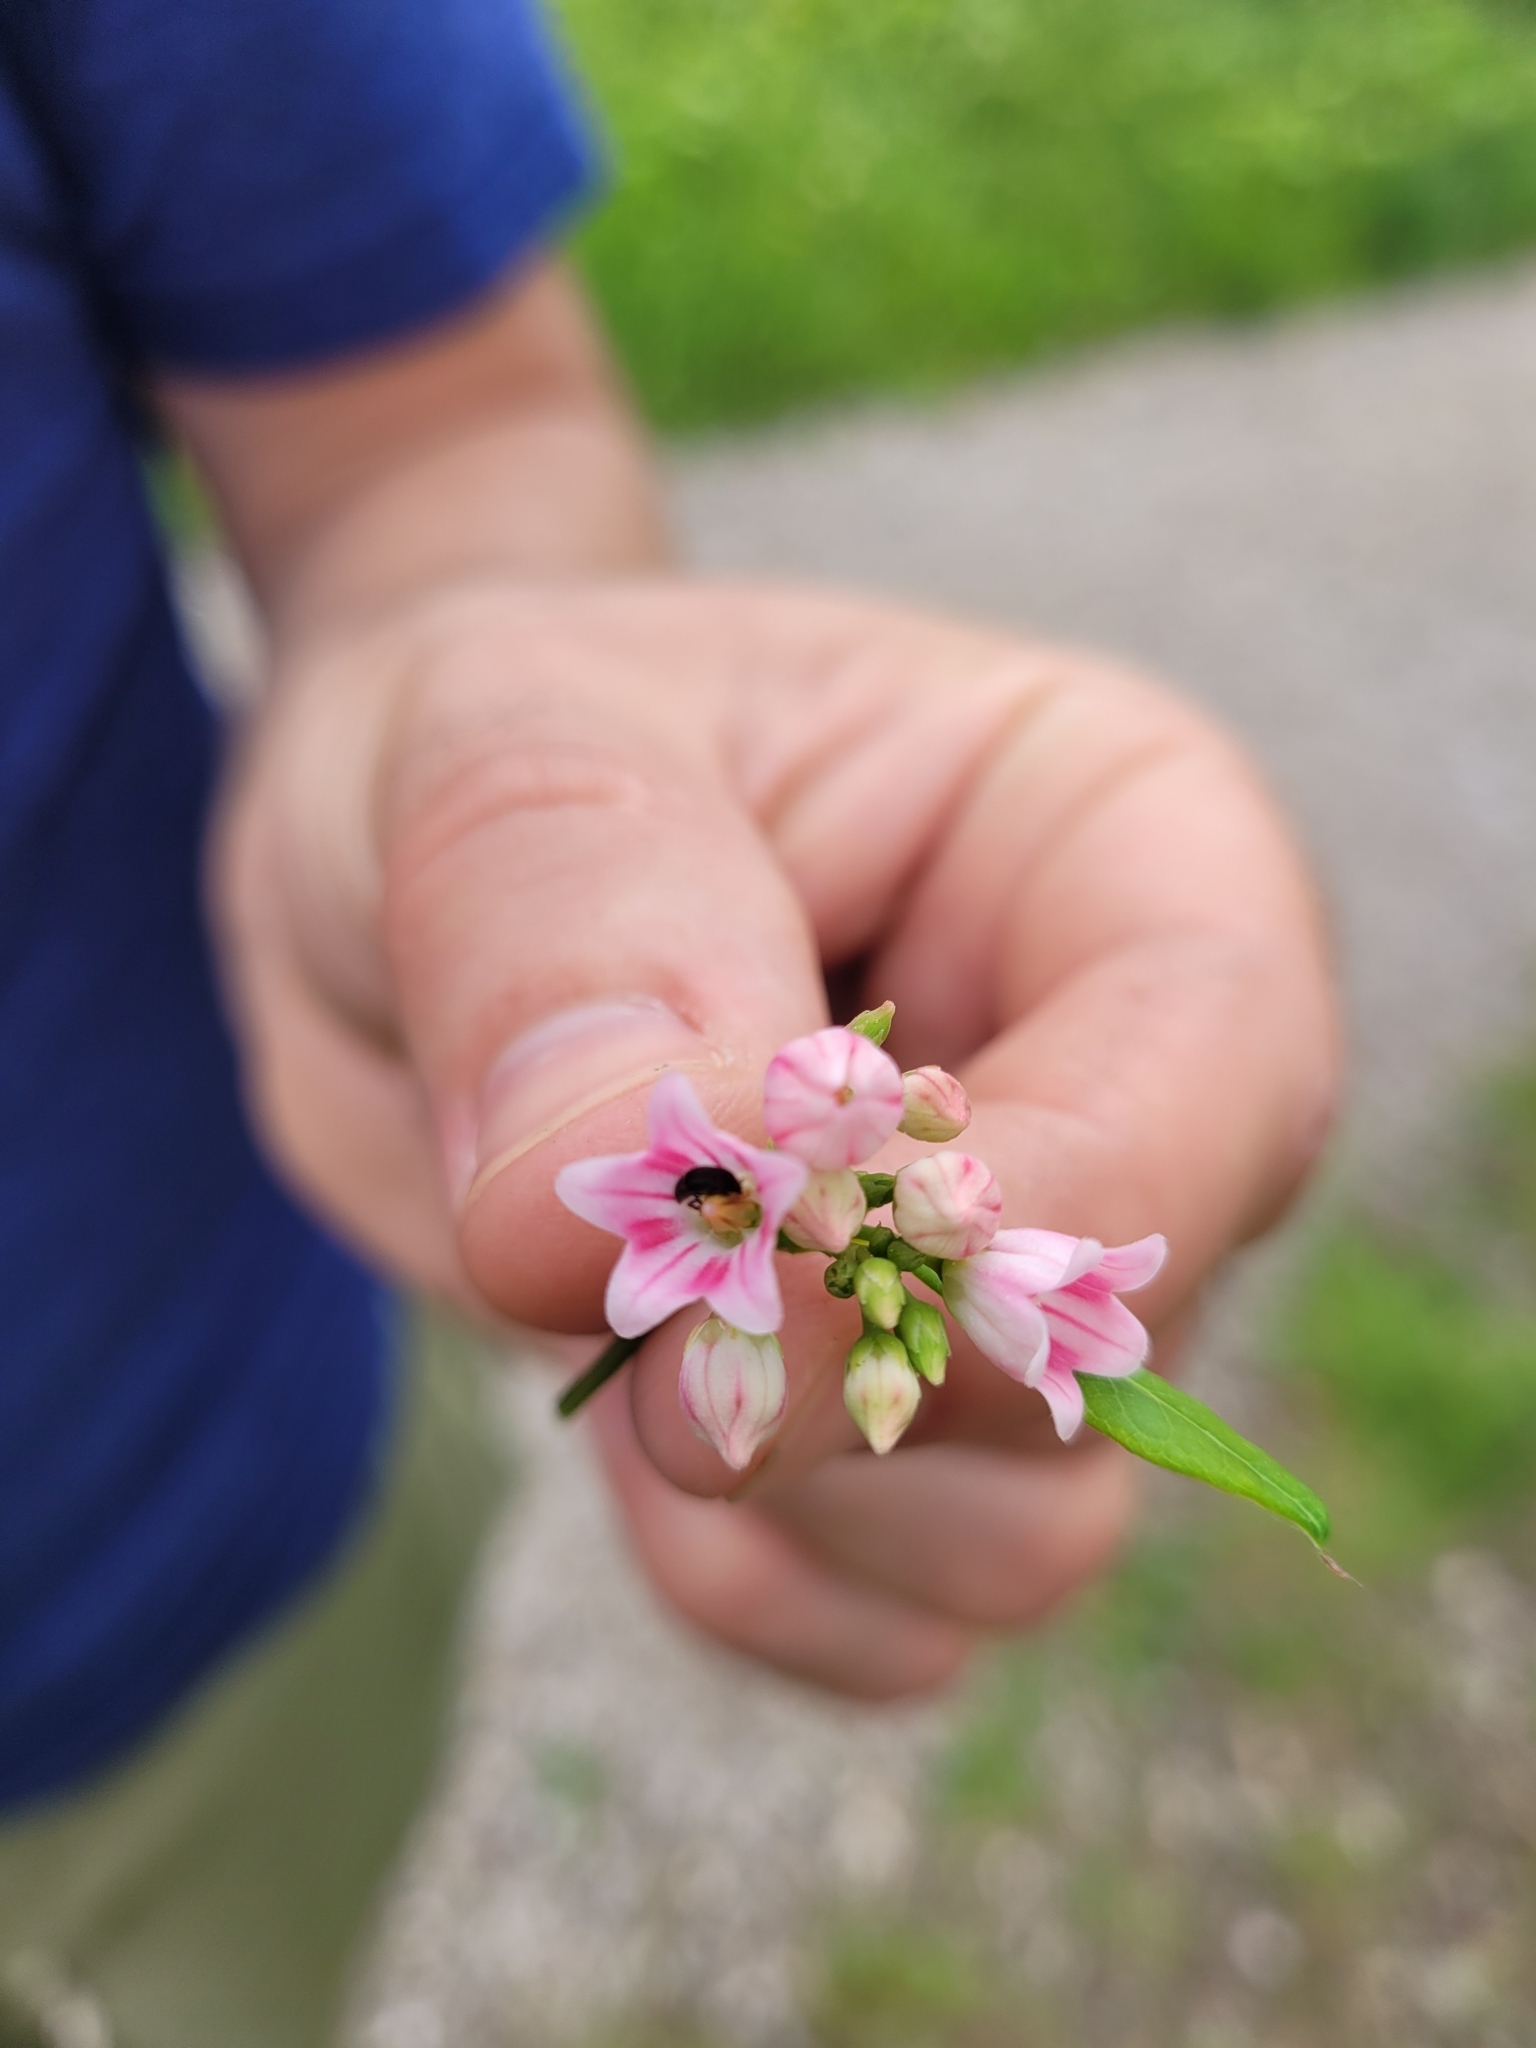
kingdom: Plantae
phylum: Tracheophyta
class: Magnoliopsida
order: Gentianales
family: Apocynaceae
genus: Apocynum
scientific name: Apocynum androsaemifolium
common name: Spreading dogbane
